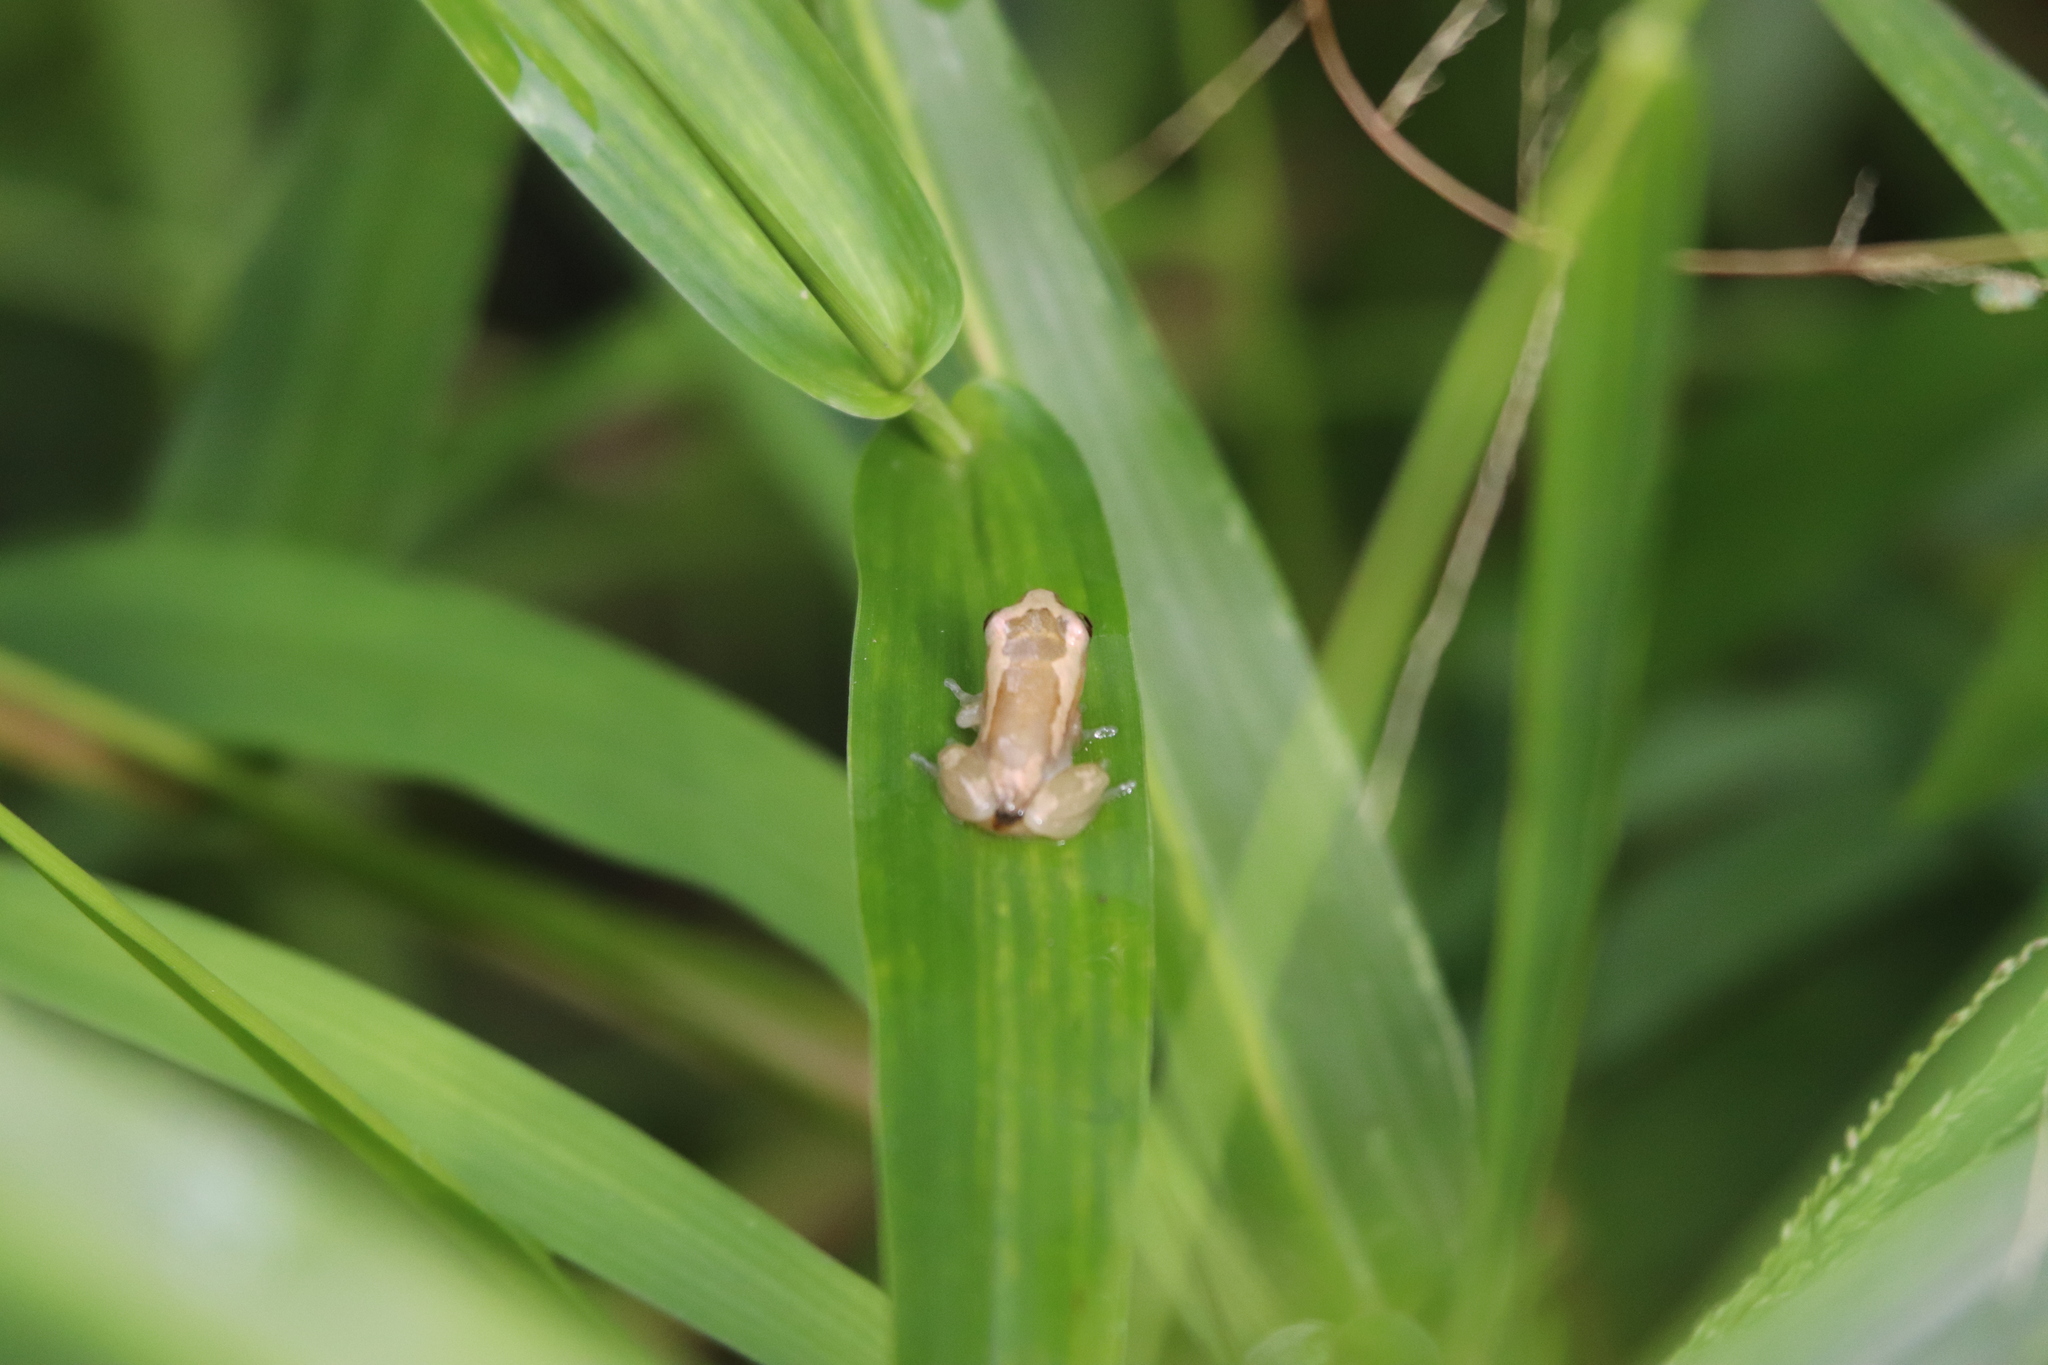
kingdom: Animalia
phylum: Chordata
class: Amphibia
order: Anura
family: Hyperoliidae
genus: Afrixalus
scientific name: Afrixalus dorsalis
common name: Striped spiny reed frog
